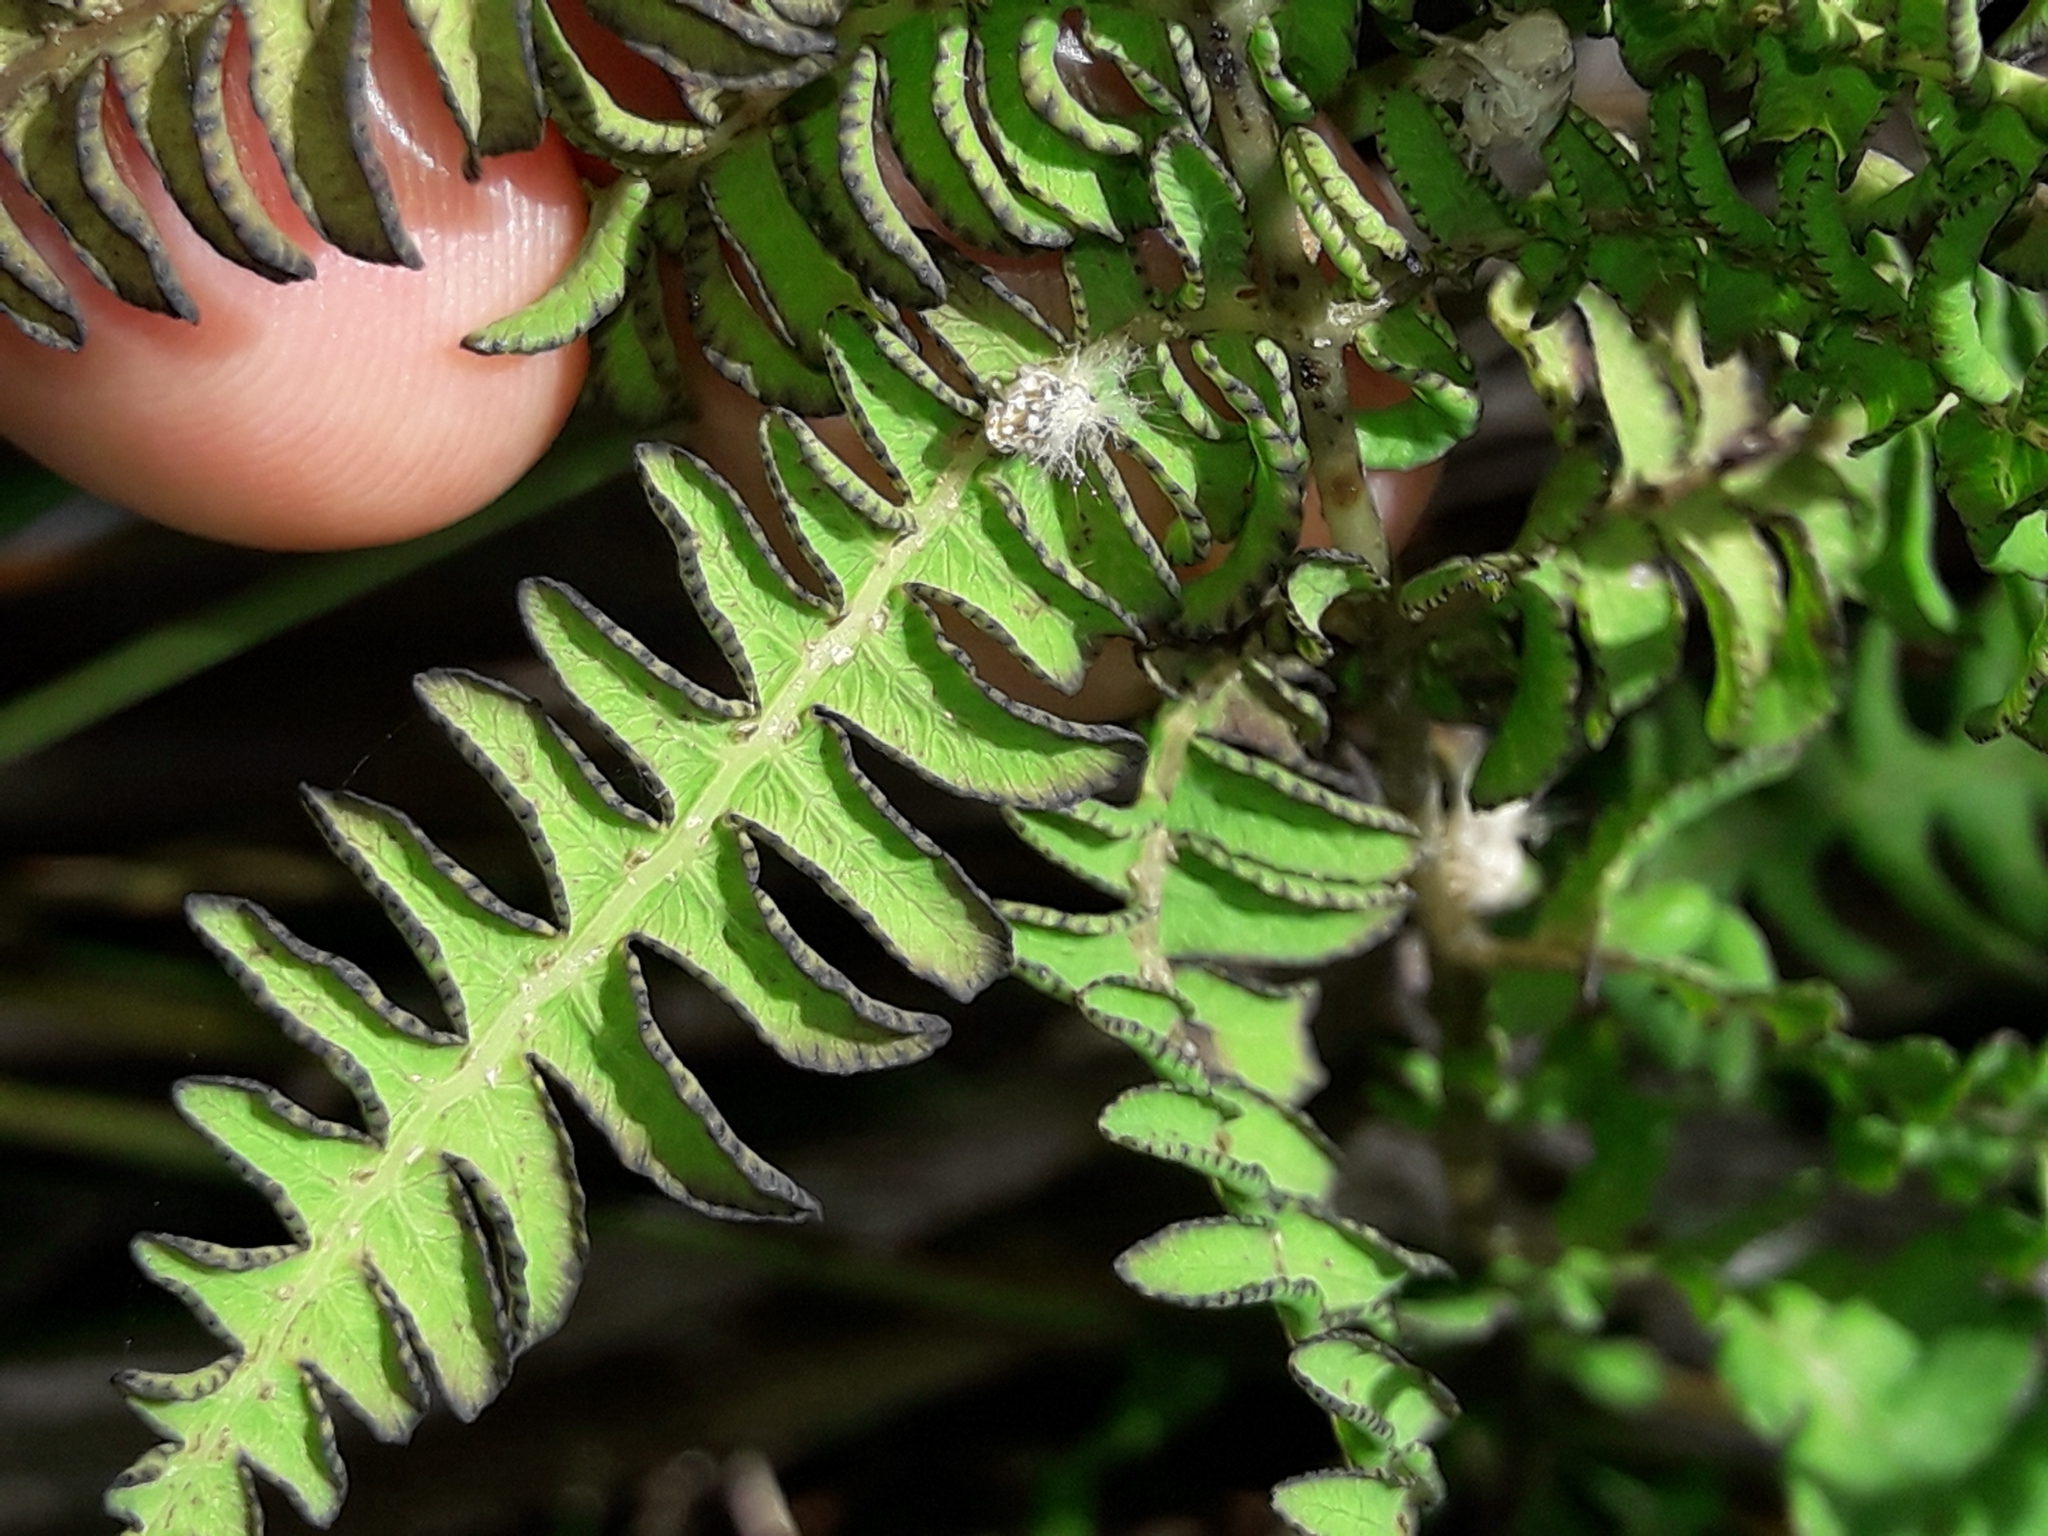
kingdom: Plantae
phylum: Tracheophyta
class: Polypodiopsida
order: Polypodiales
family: Thelypteridaceae
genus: Thelypteris
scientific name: Thelypteris confluens
